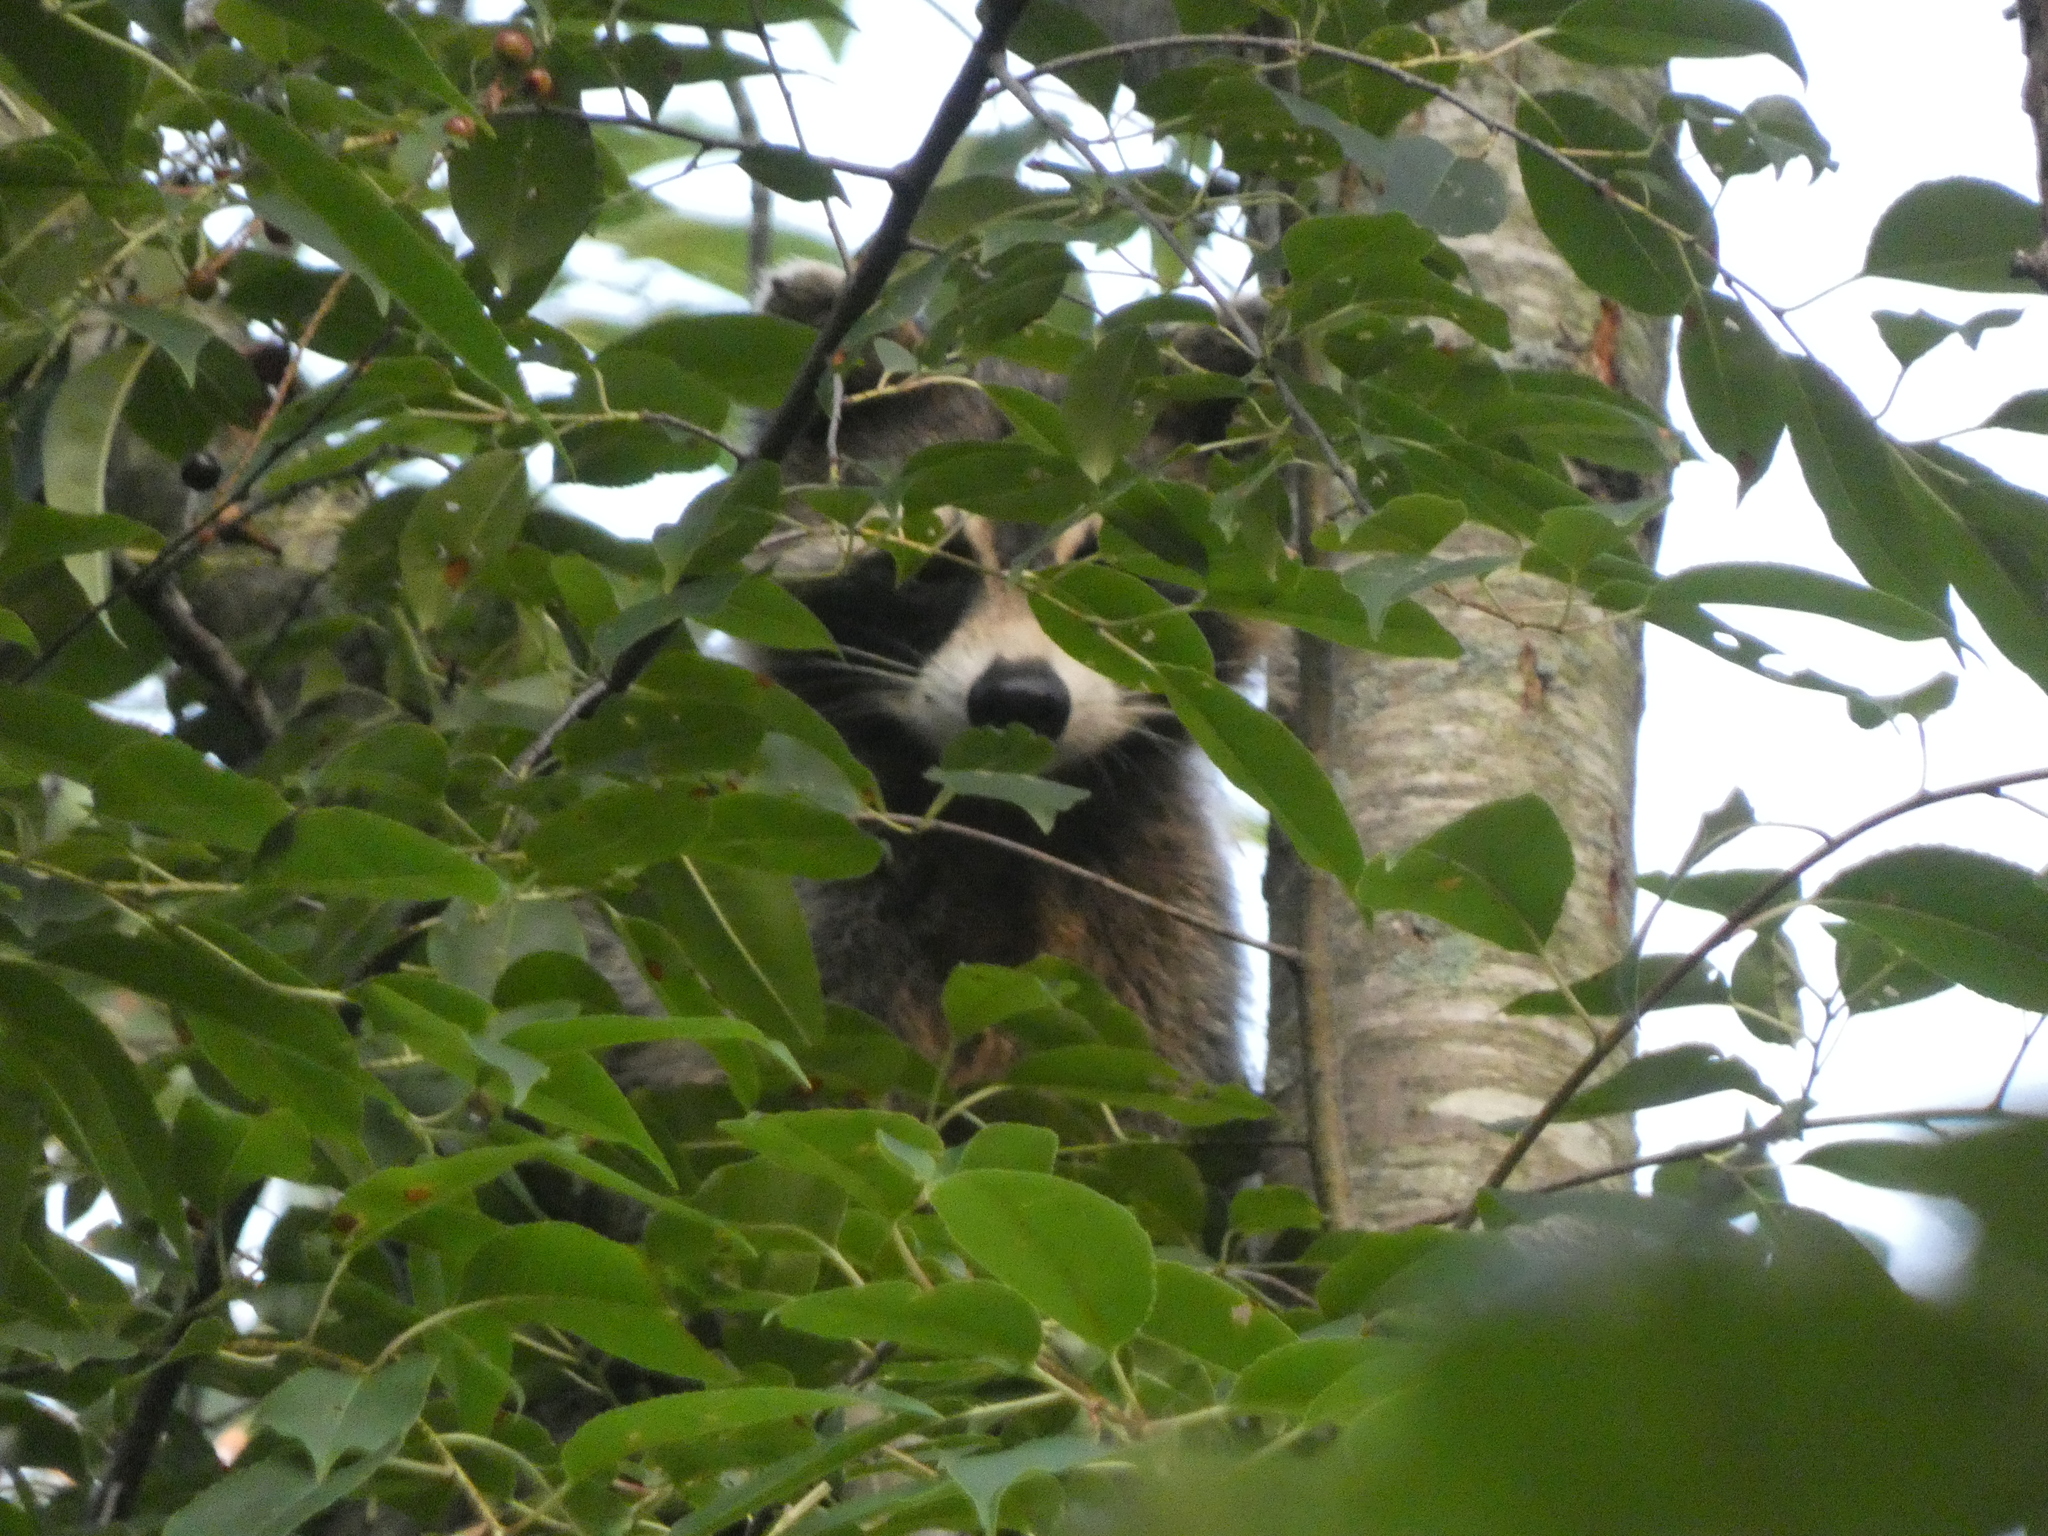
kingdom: Animalia
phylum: Chordata
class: Mammalia
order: Carnivora
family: Procyonidae
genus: Procyon
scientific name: Procyon lotor
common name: Raccoon
